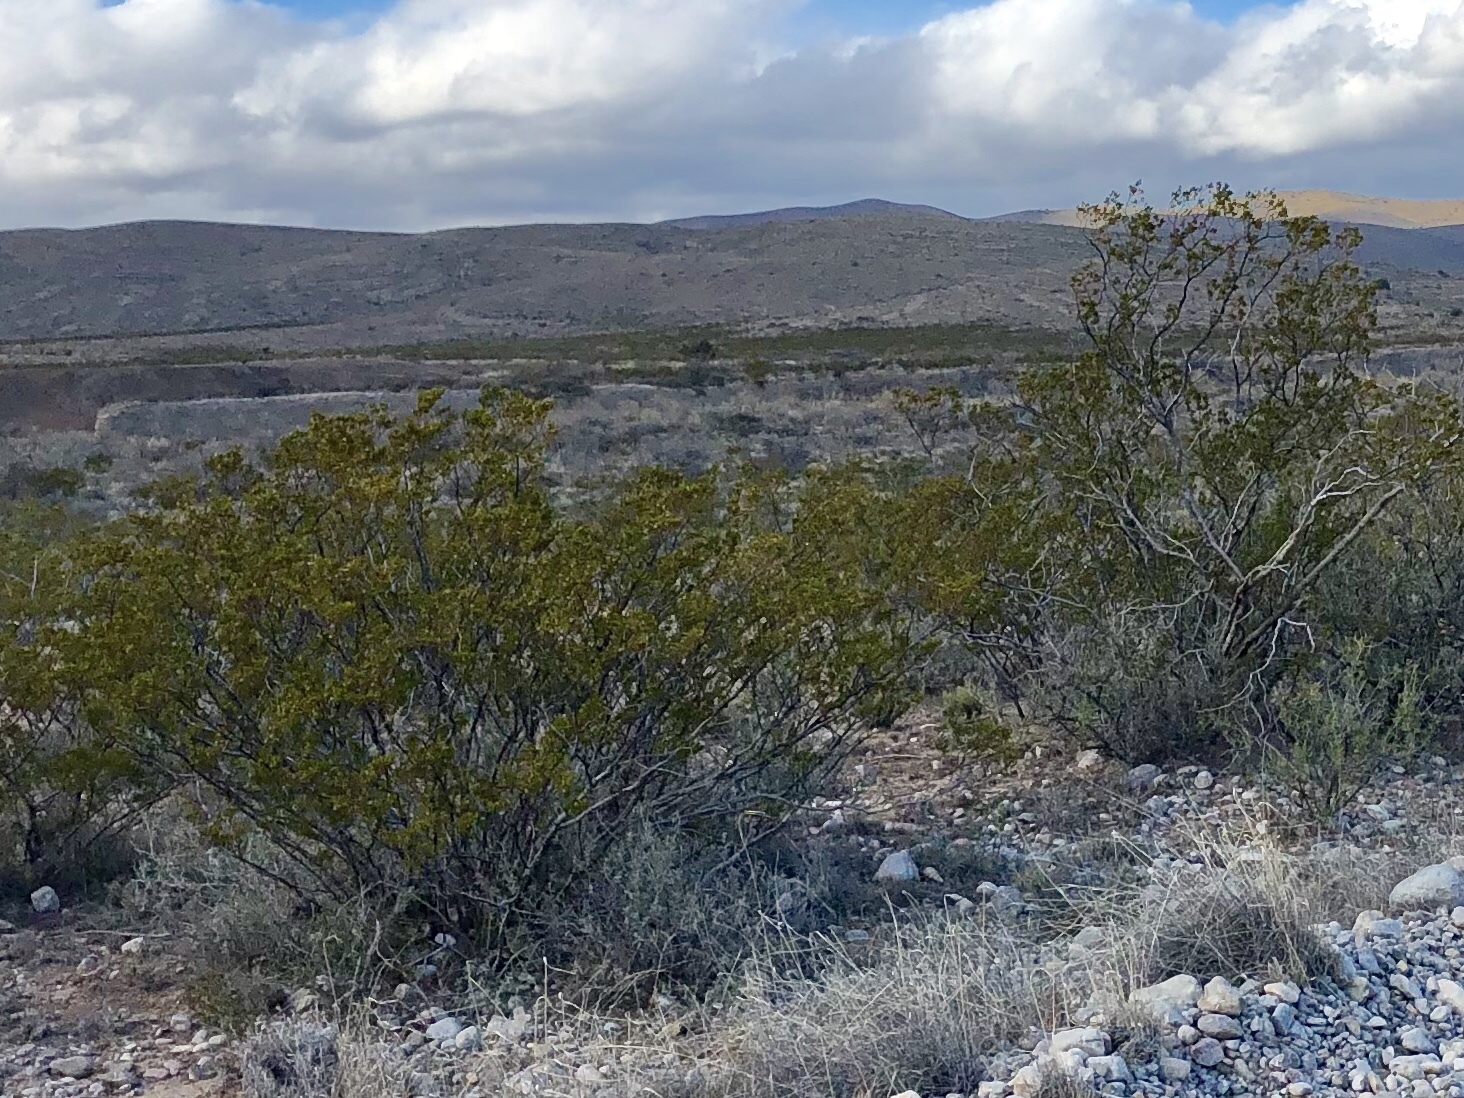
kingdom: Plantae
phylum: Tracheophyta
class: Magnoliopsida
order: Zygophyllales
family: Zygophyllaceae
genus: Larrea
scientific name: Larrea tridentata
